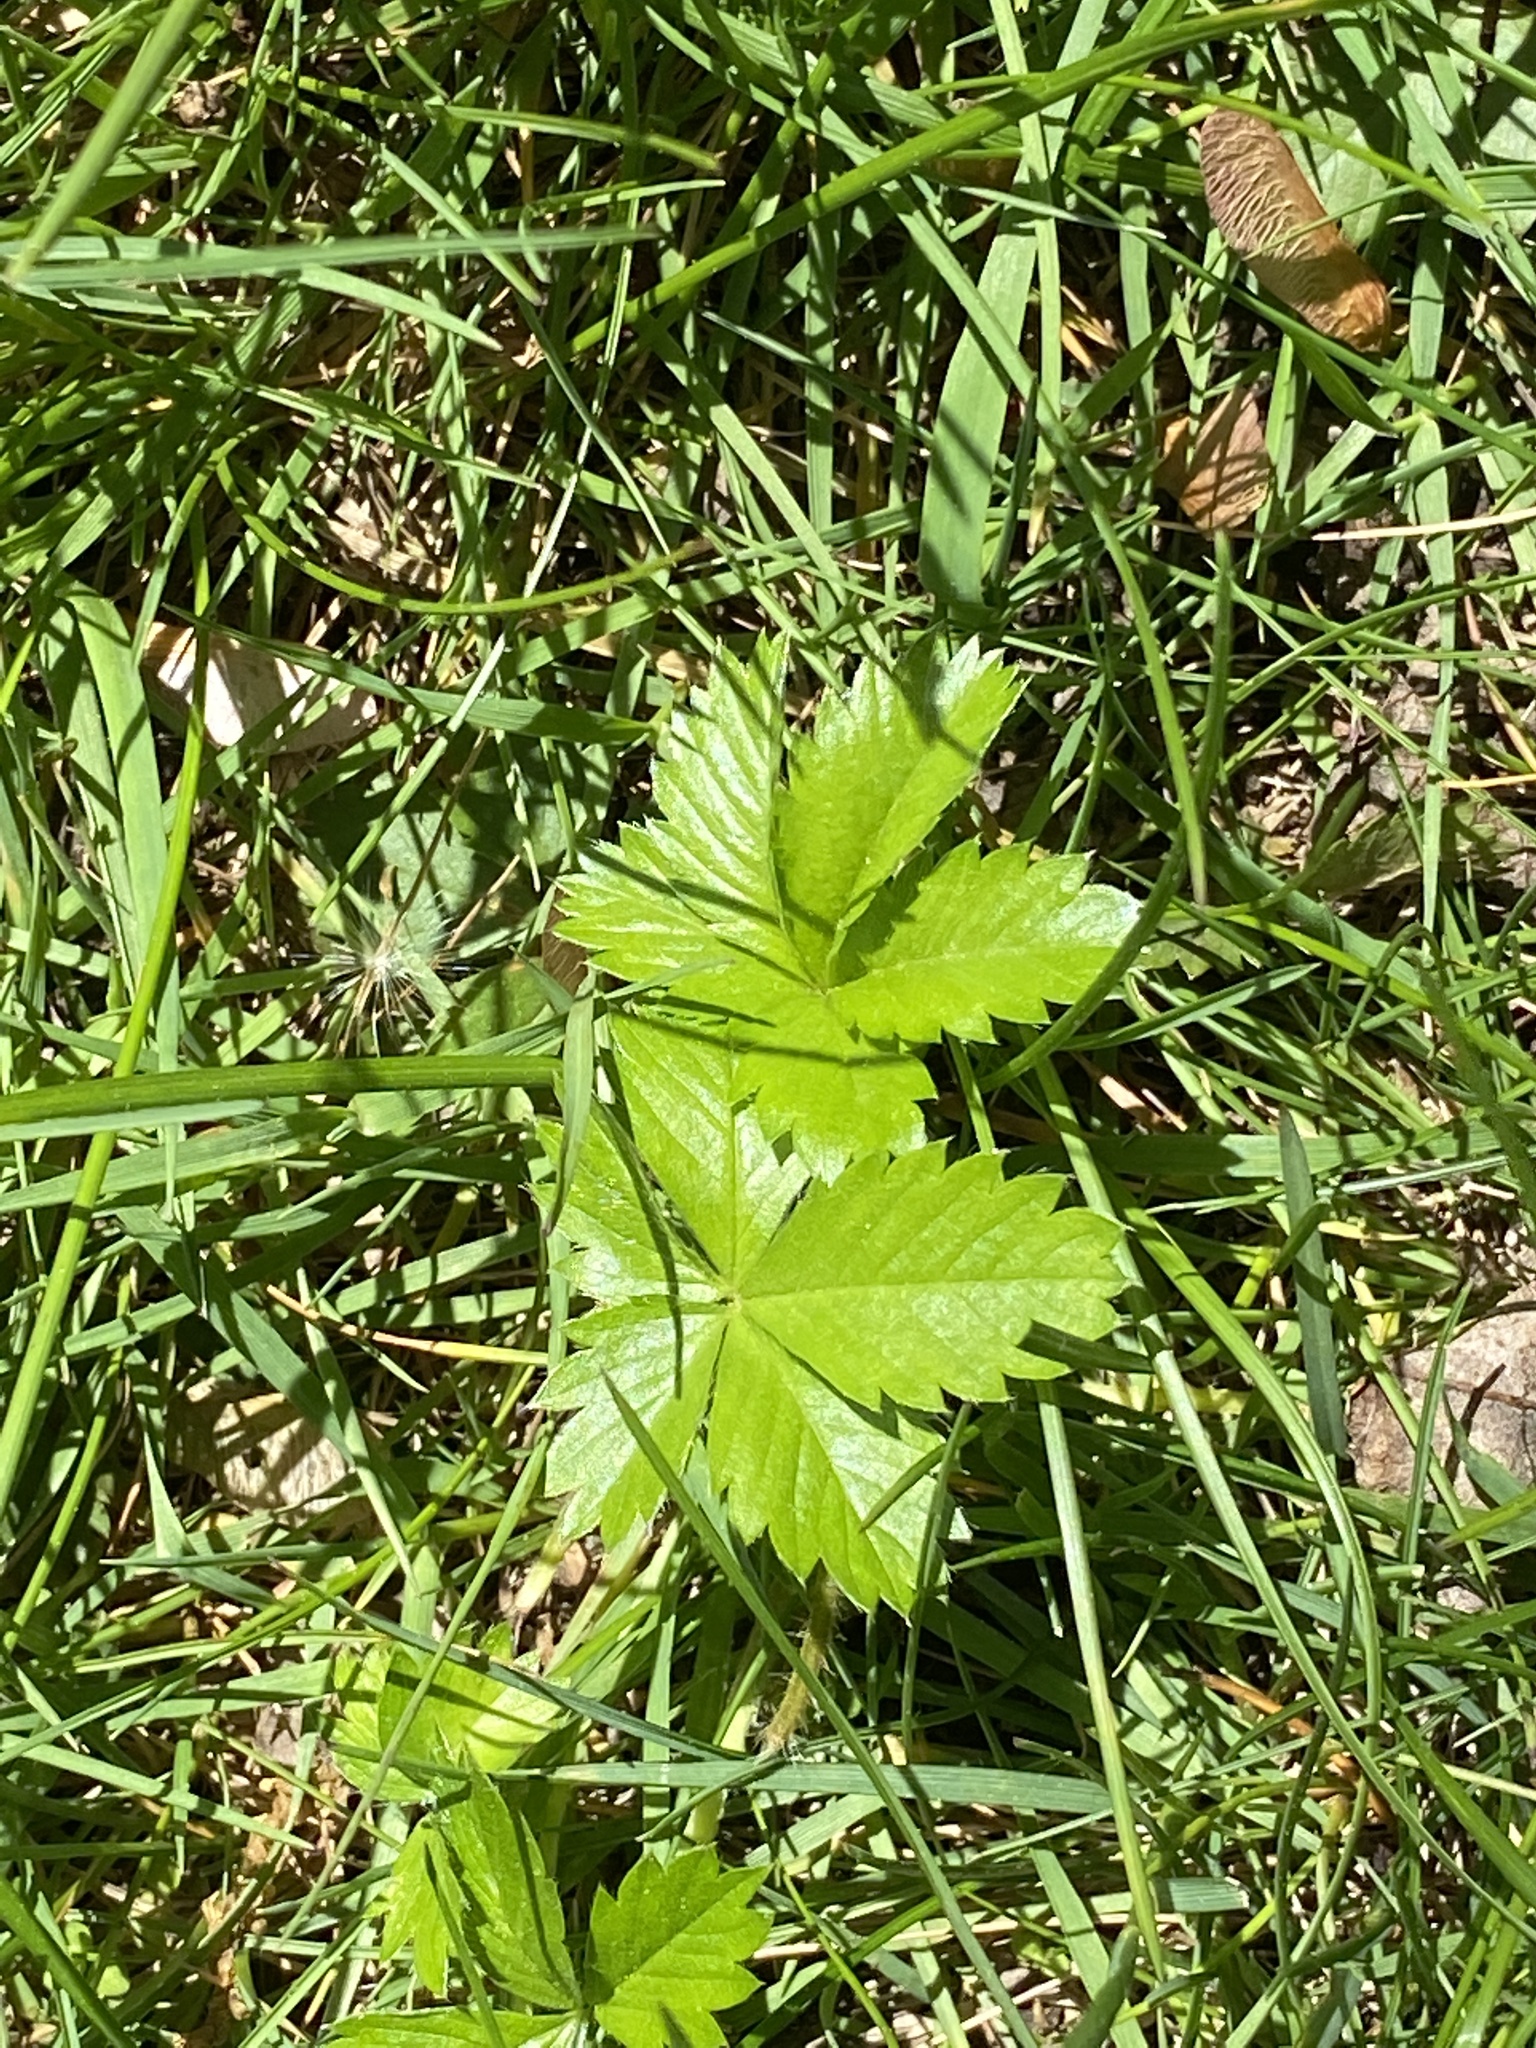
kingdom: Plantae
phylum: Tracheophyta
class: Magnoliopsida
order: Rosales
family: Rosaceae
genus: Potentilla
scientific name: Potentilla canadensis
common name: Canada cinquefoil
